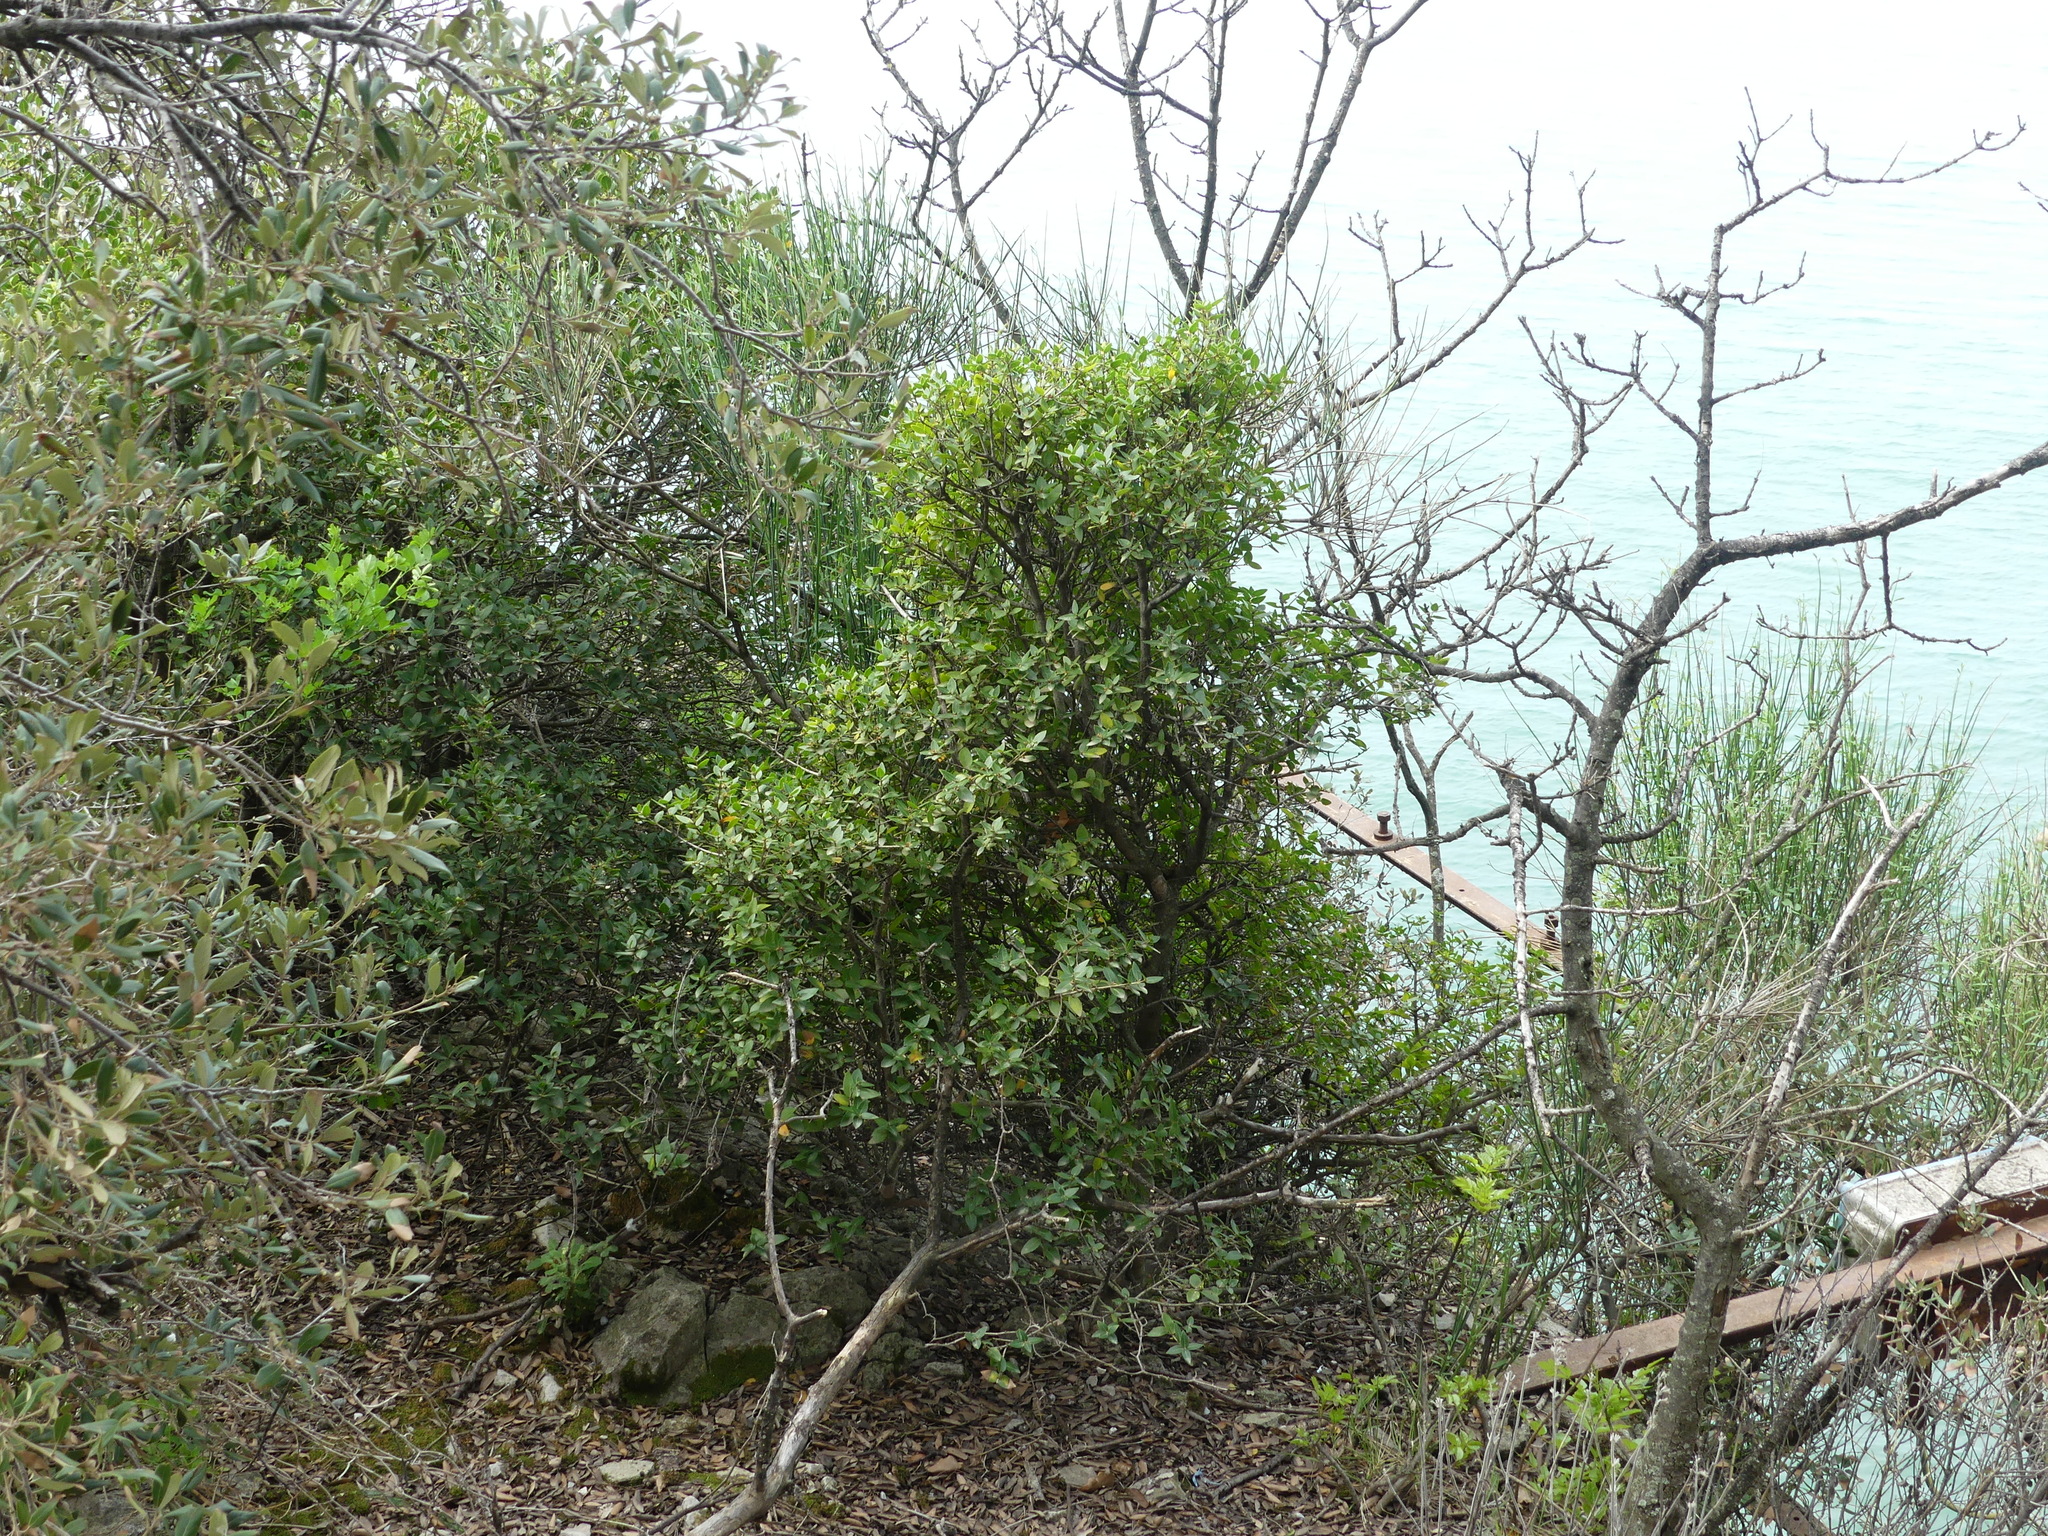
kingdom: Plantae
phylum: Tracheophyta
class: Magnoliopsida
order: Lamiales
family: Oleaceae
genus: Phillyrea
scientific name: Phillyrea latifolia
